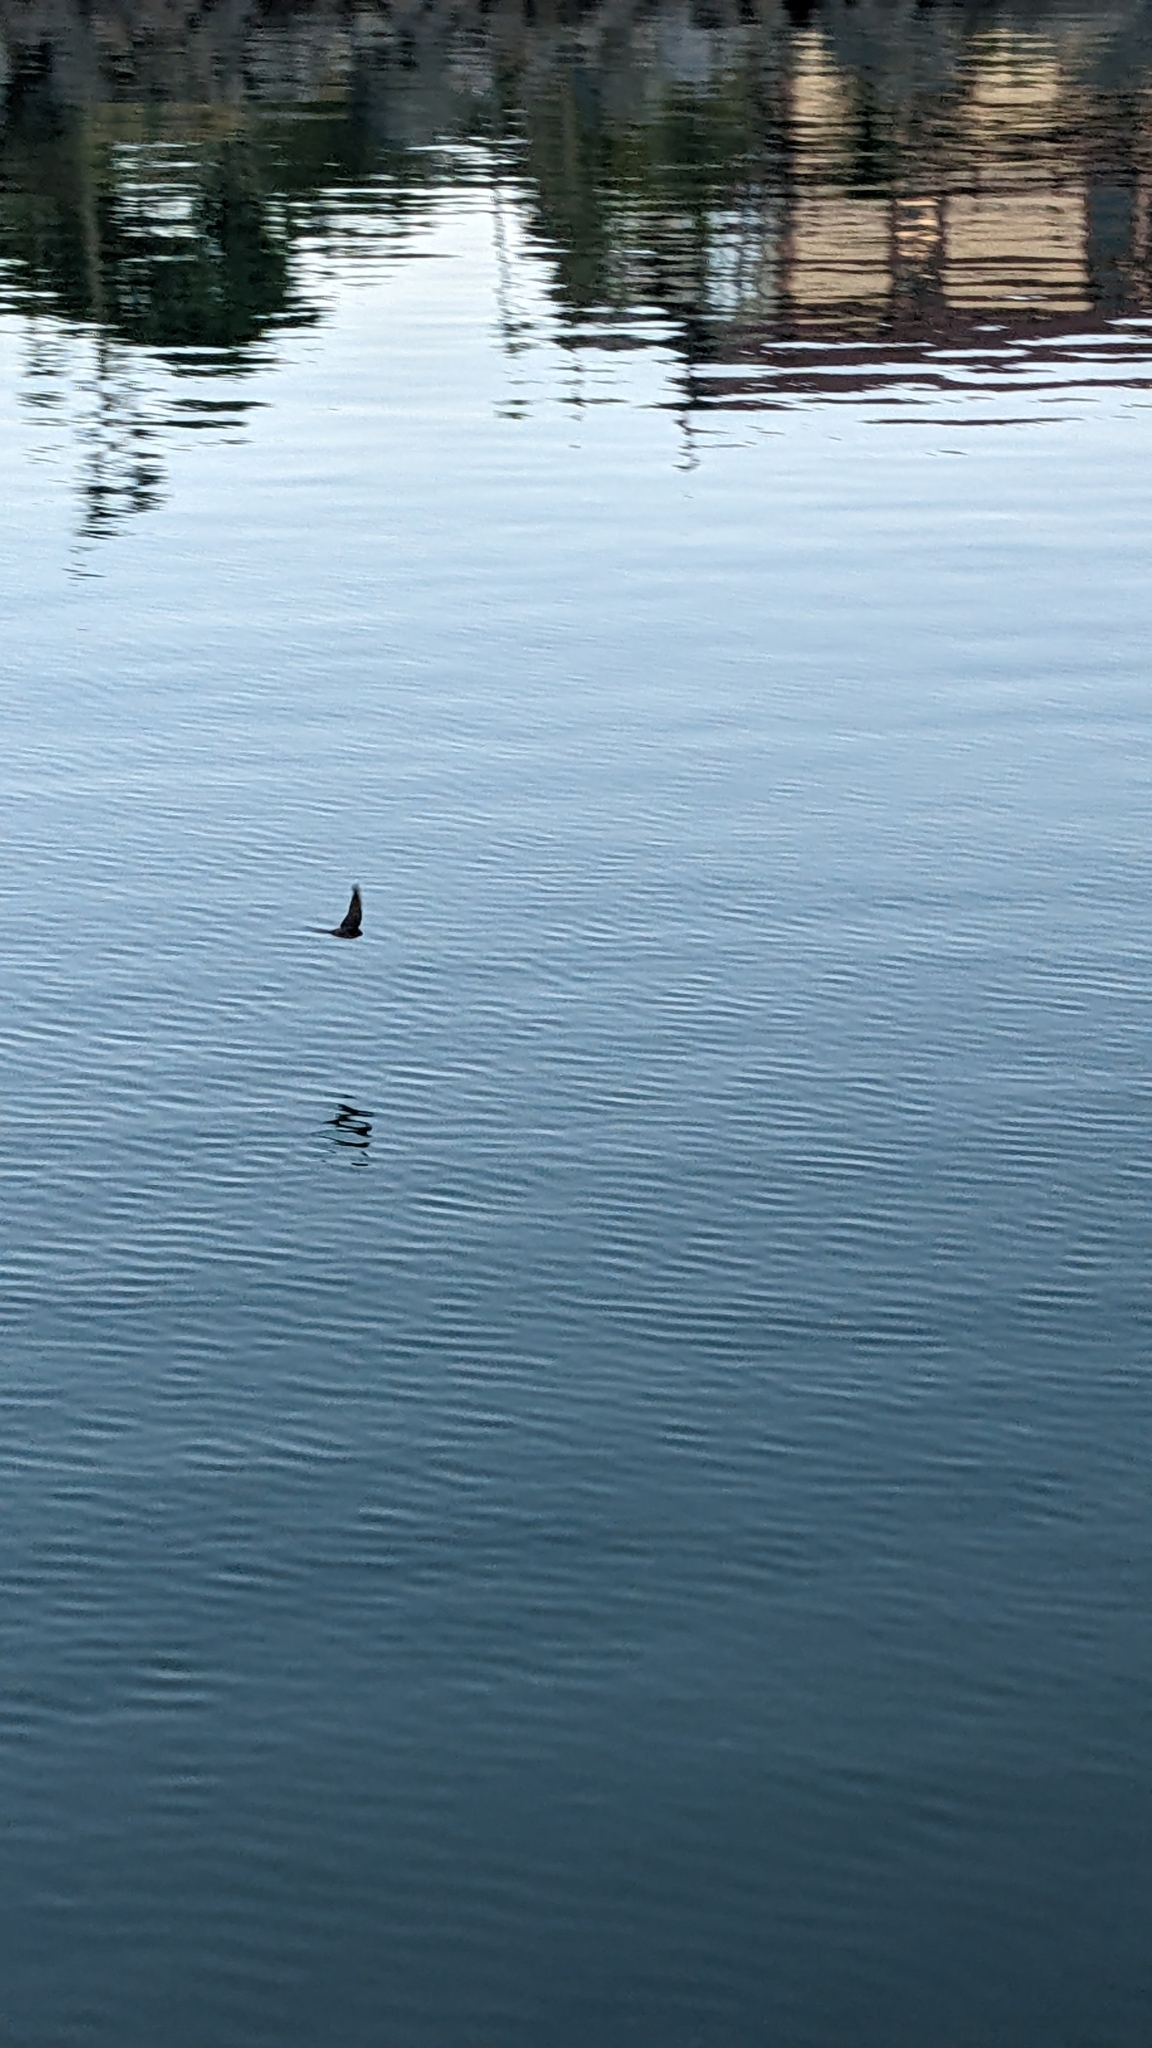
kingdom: Animalia
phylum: Chordata
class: Aves
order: Passeriformes
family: Hirundinidae
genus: Hirundo
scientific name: Hirundo neoxena
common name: Welcome swallow
